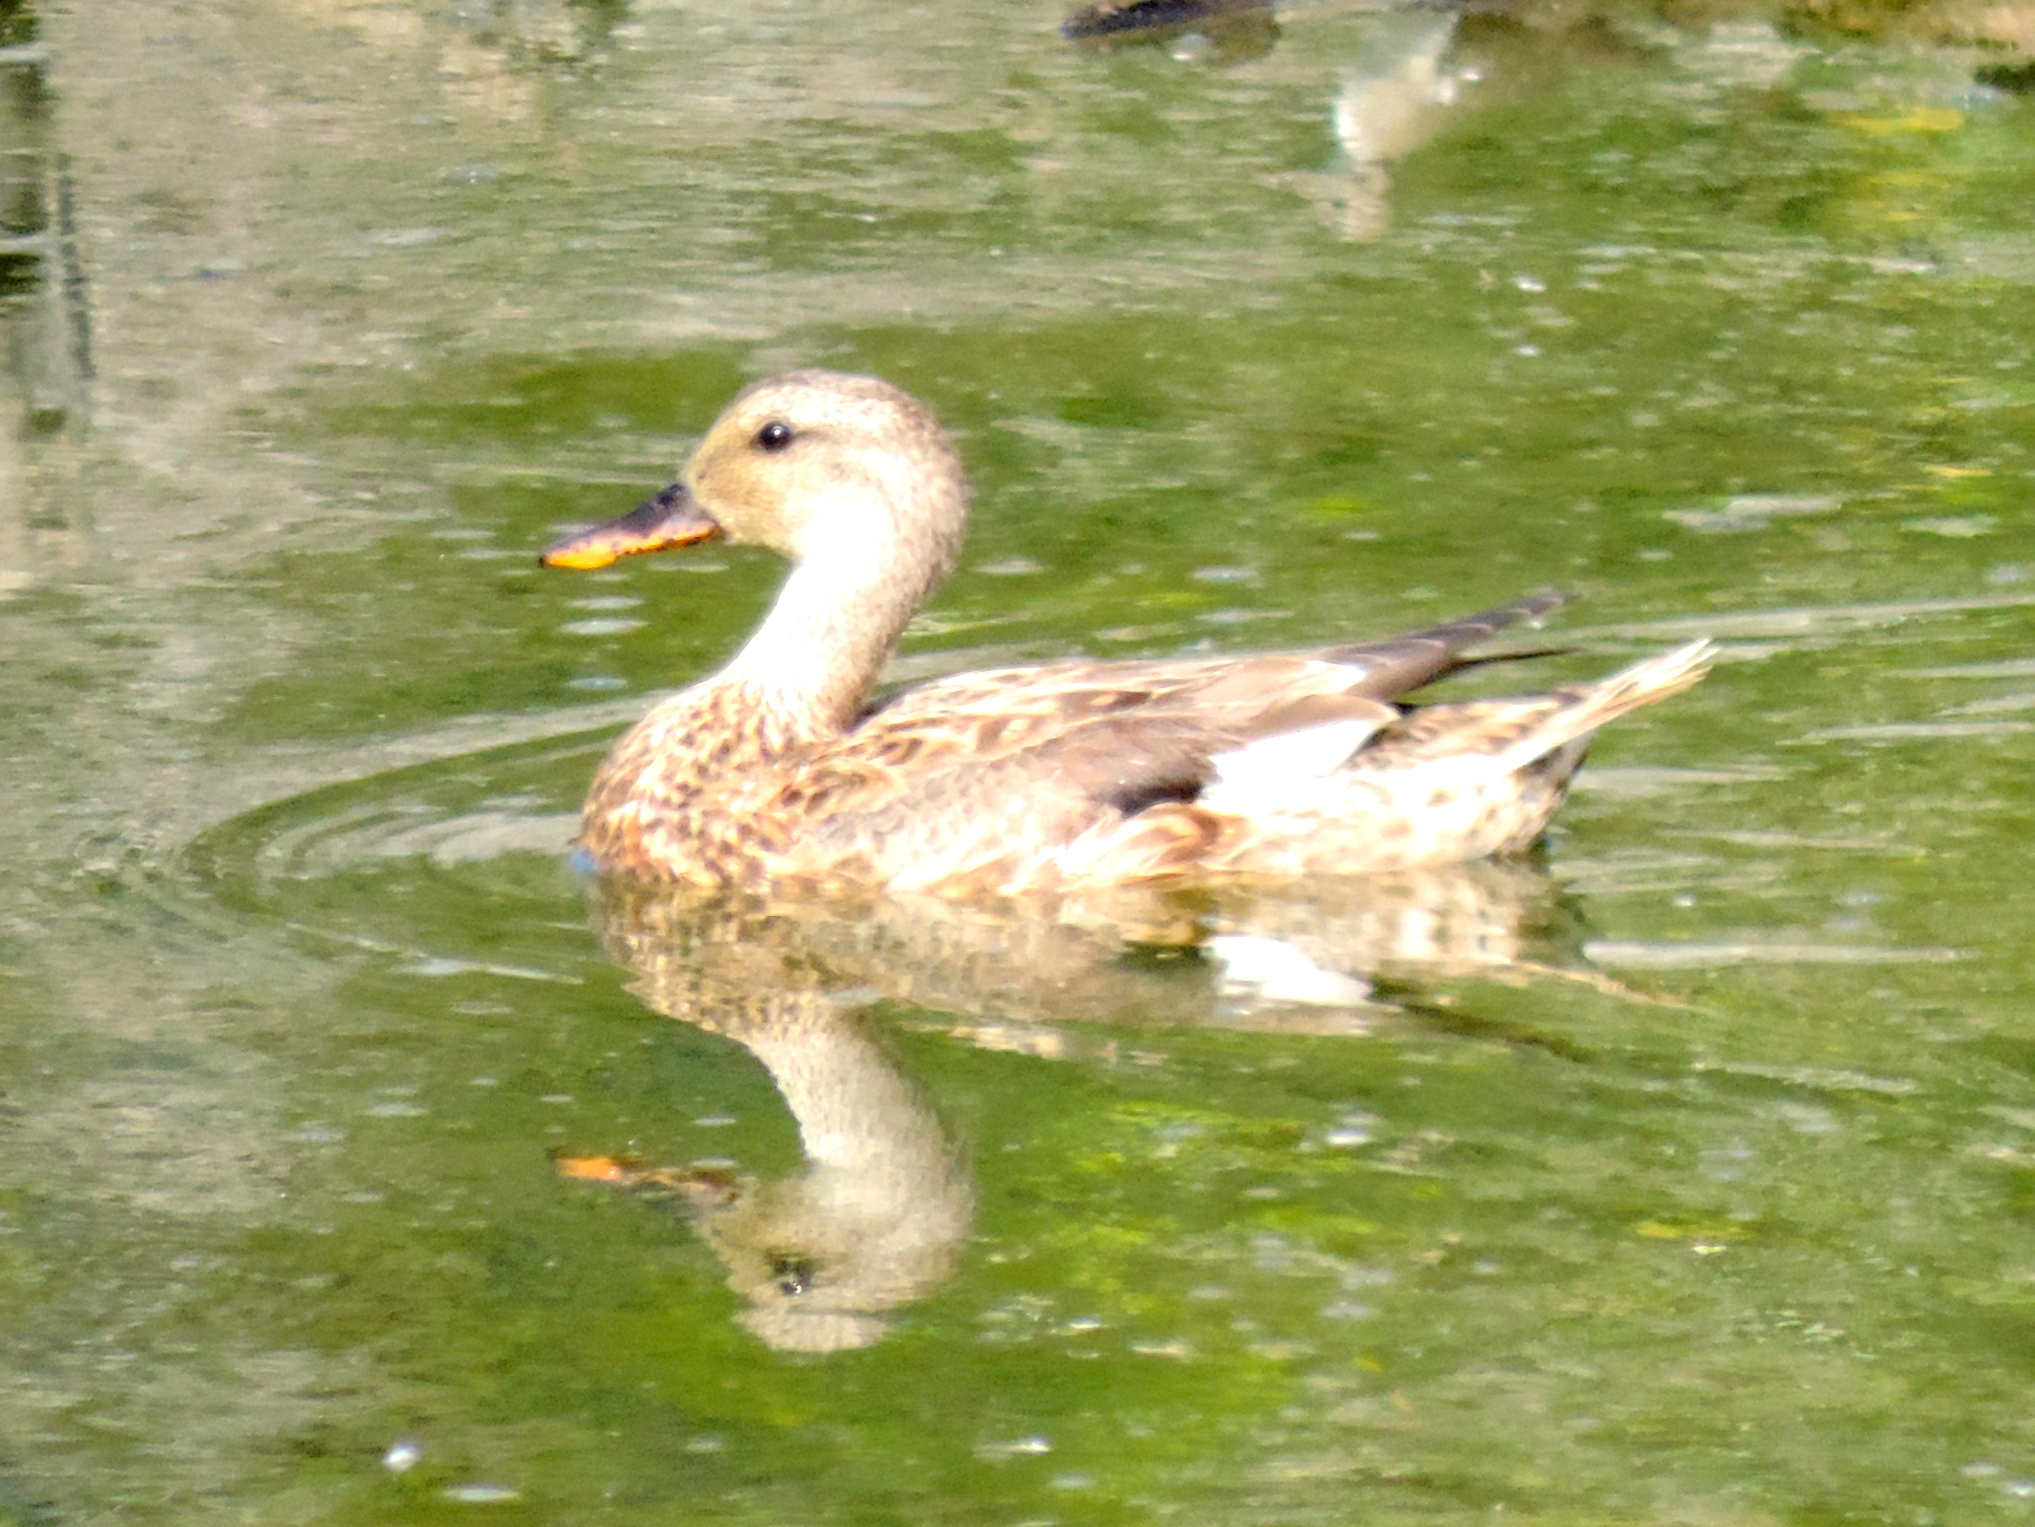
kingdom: Animalia
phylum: Chordata
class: Aves
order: Anseriformes
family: Anatidae
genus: Mareca
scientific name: Mareca strepera
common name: Gadwall
